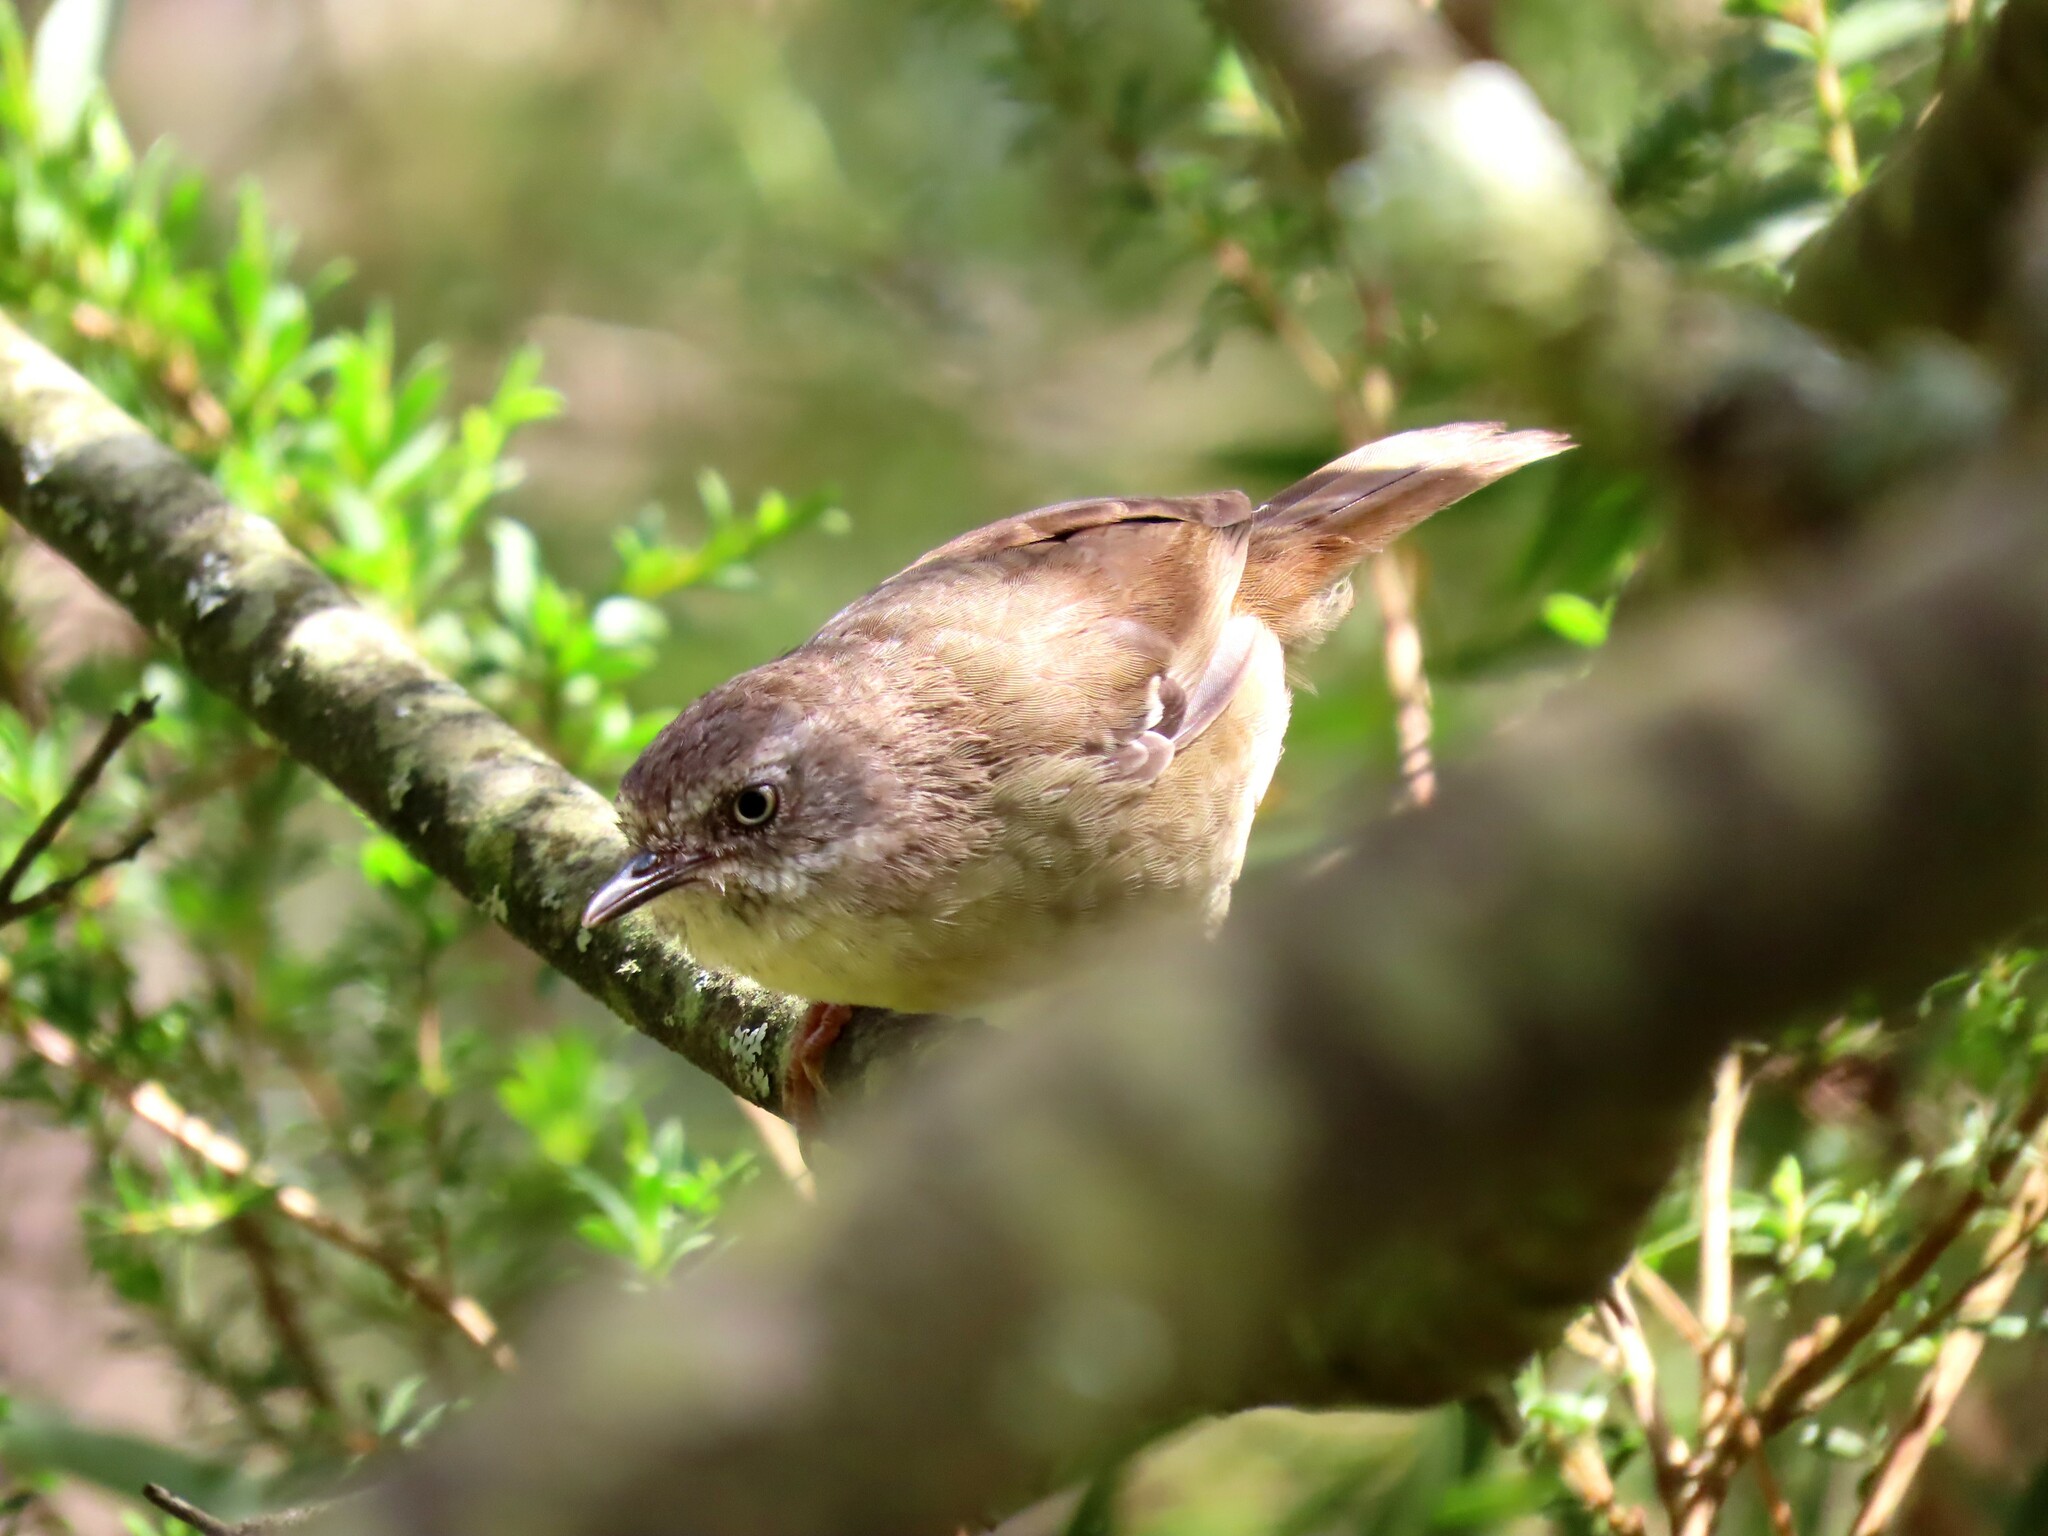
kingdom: Animalia
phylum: Chordata
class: Aves
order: Passeriformes
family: Acanthizidae
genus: Sericornis
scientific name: Sericornis frontalis
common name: White-browed scrubwren
